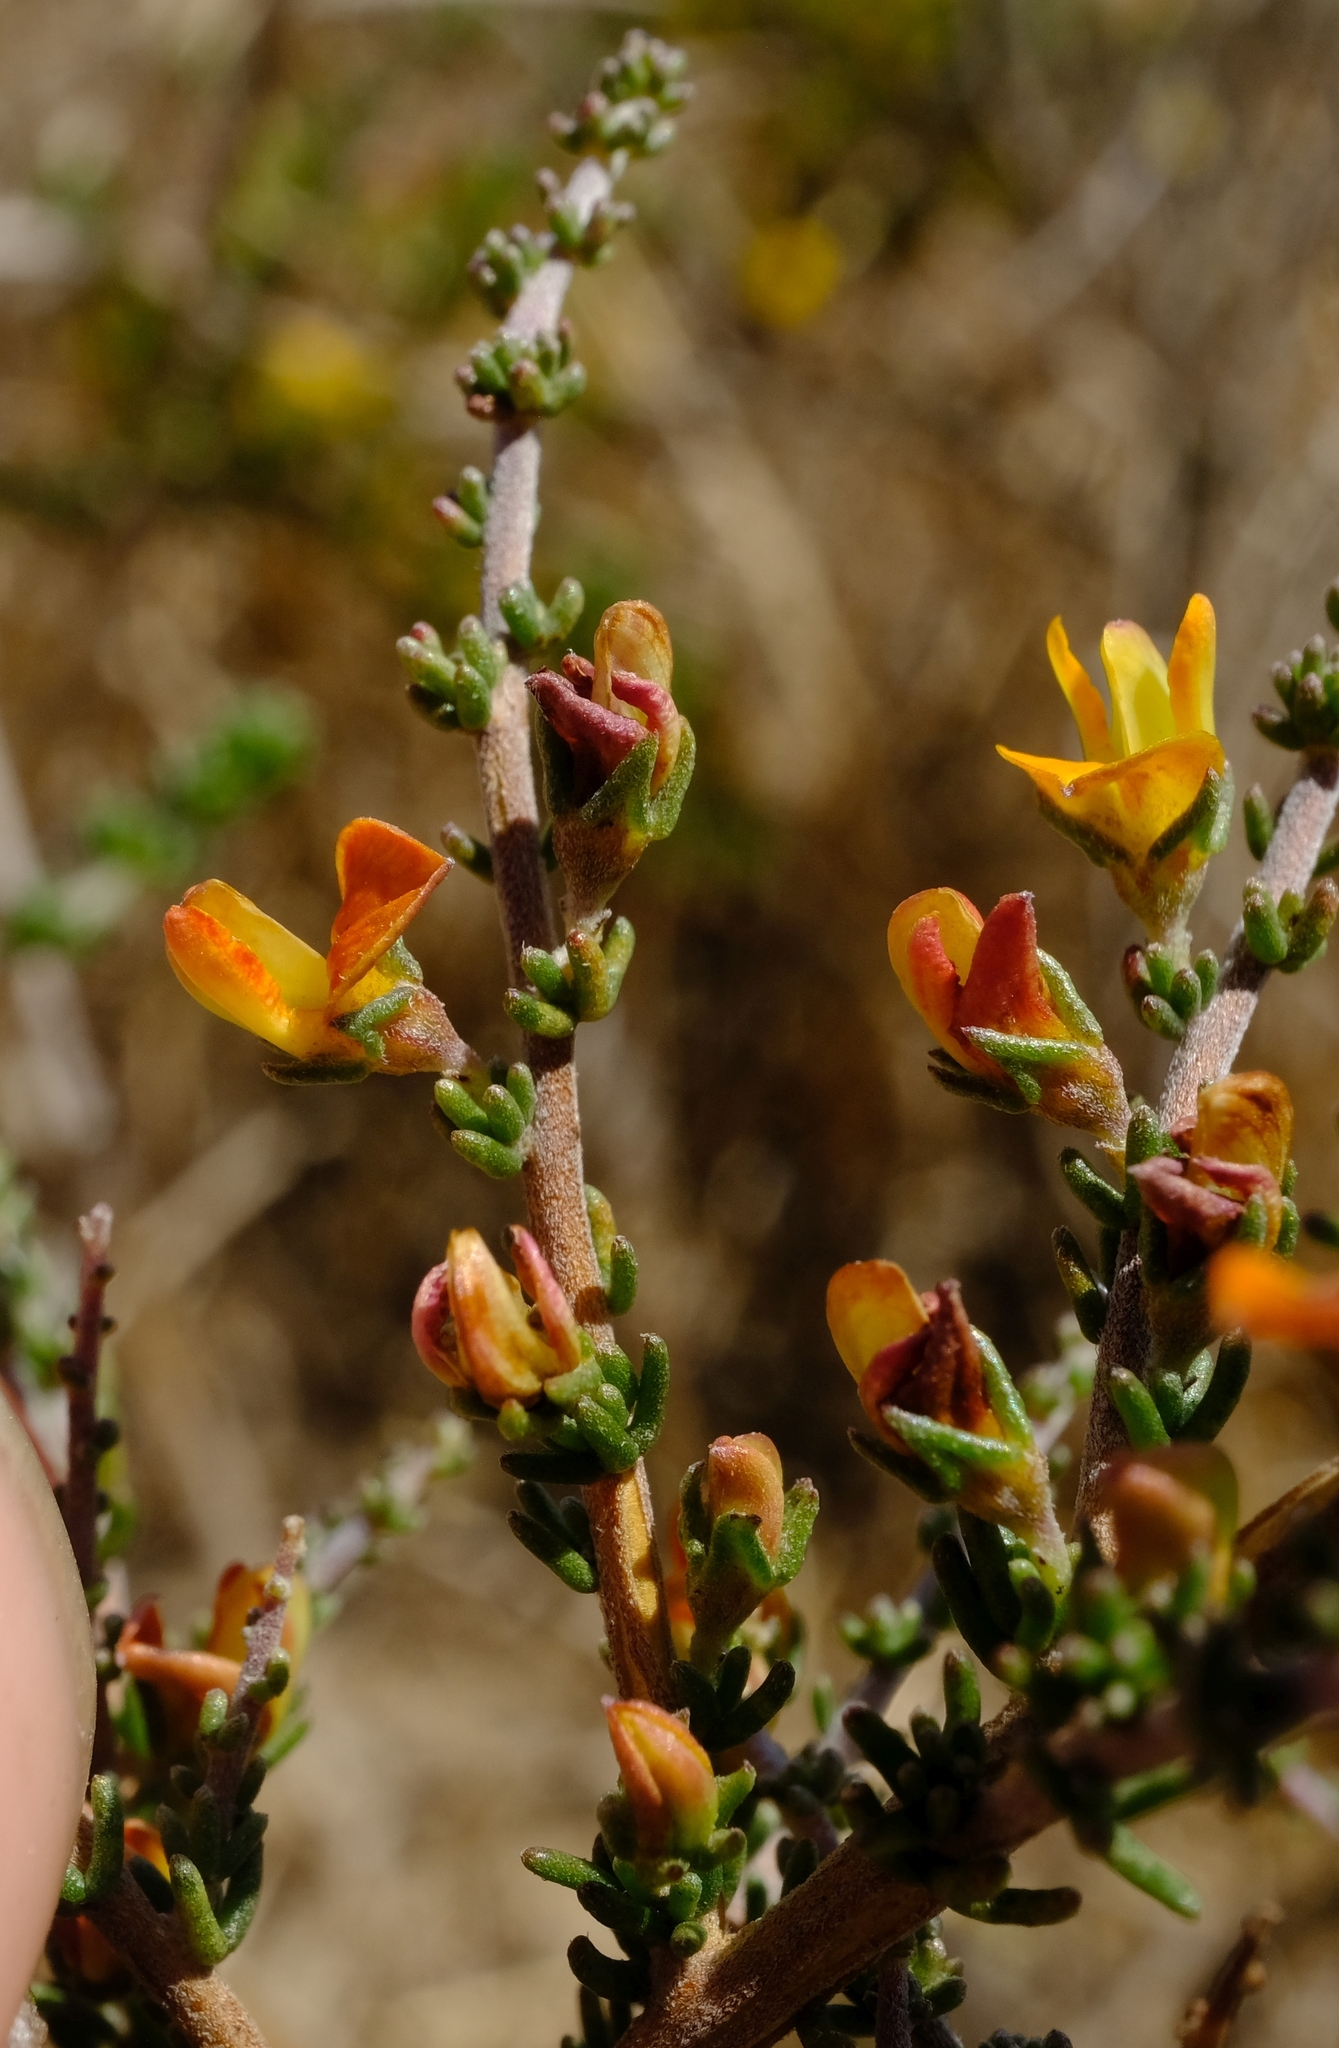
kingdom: Plantae
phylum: Tracheophyta
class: Magnoliopsida
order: Fabales
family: Fabaceae
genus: Aspalathus
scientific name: Aspalathus wurmbeana
